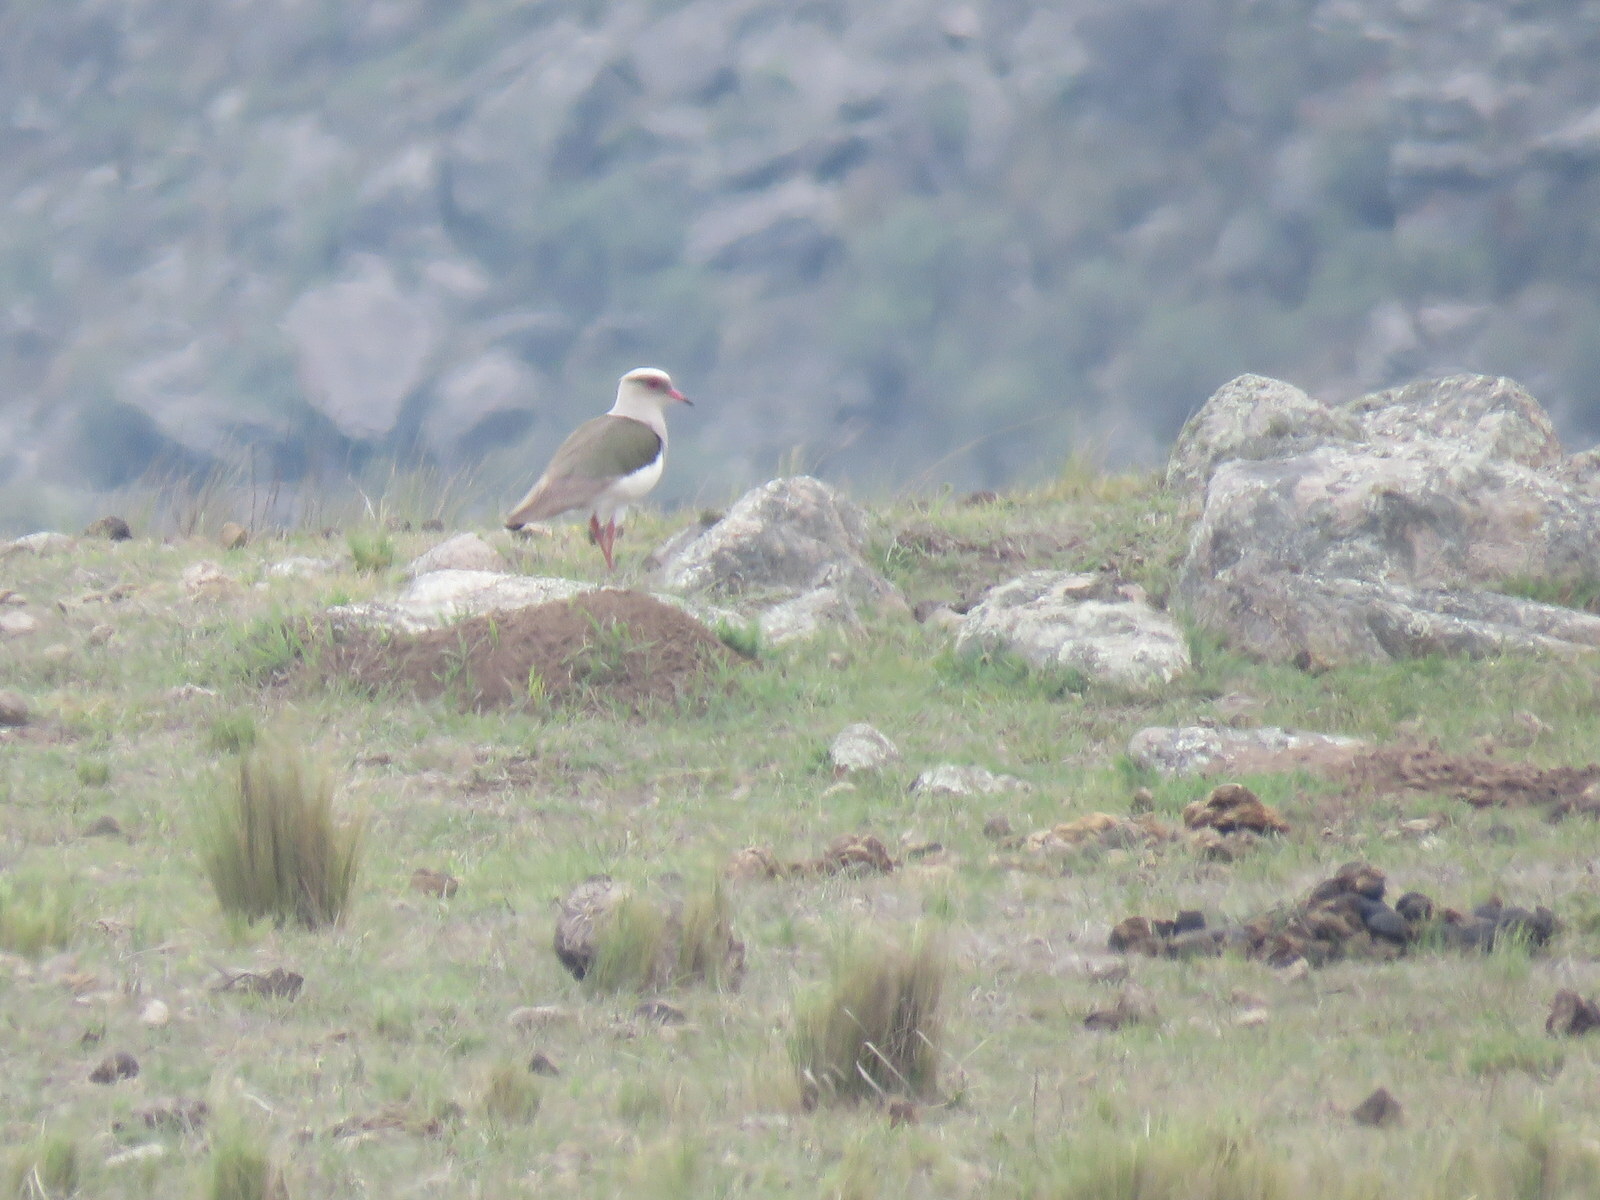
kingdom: Animalia
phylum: Chordata
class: Aves
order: Charadriiformes
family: Charadriidae
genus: Vanellus
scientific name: Vanellus resplendens
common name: Andean lapwing
